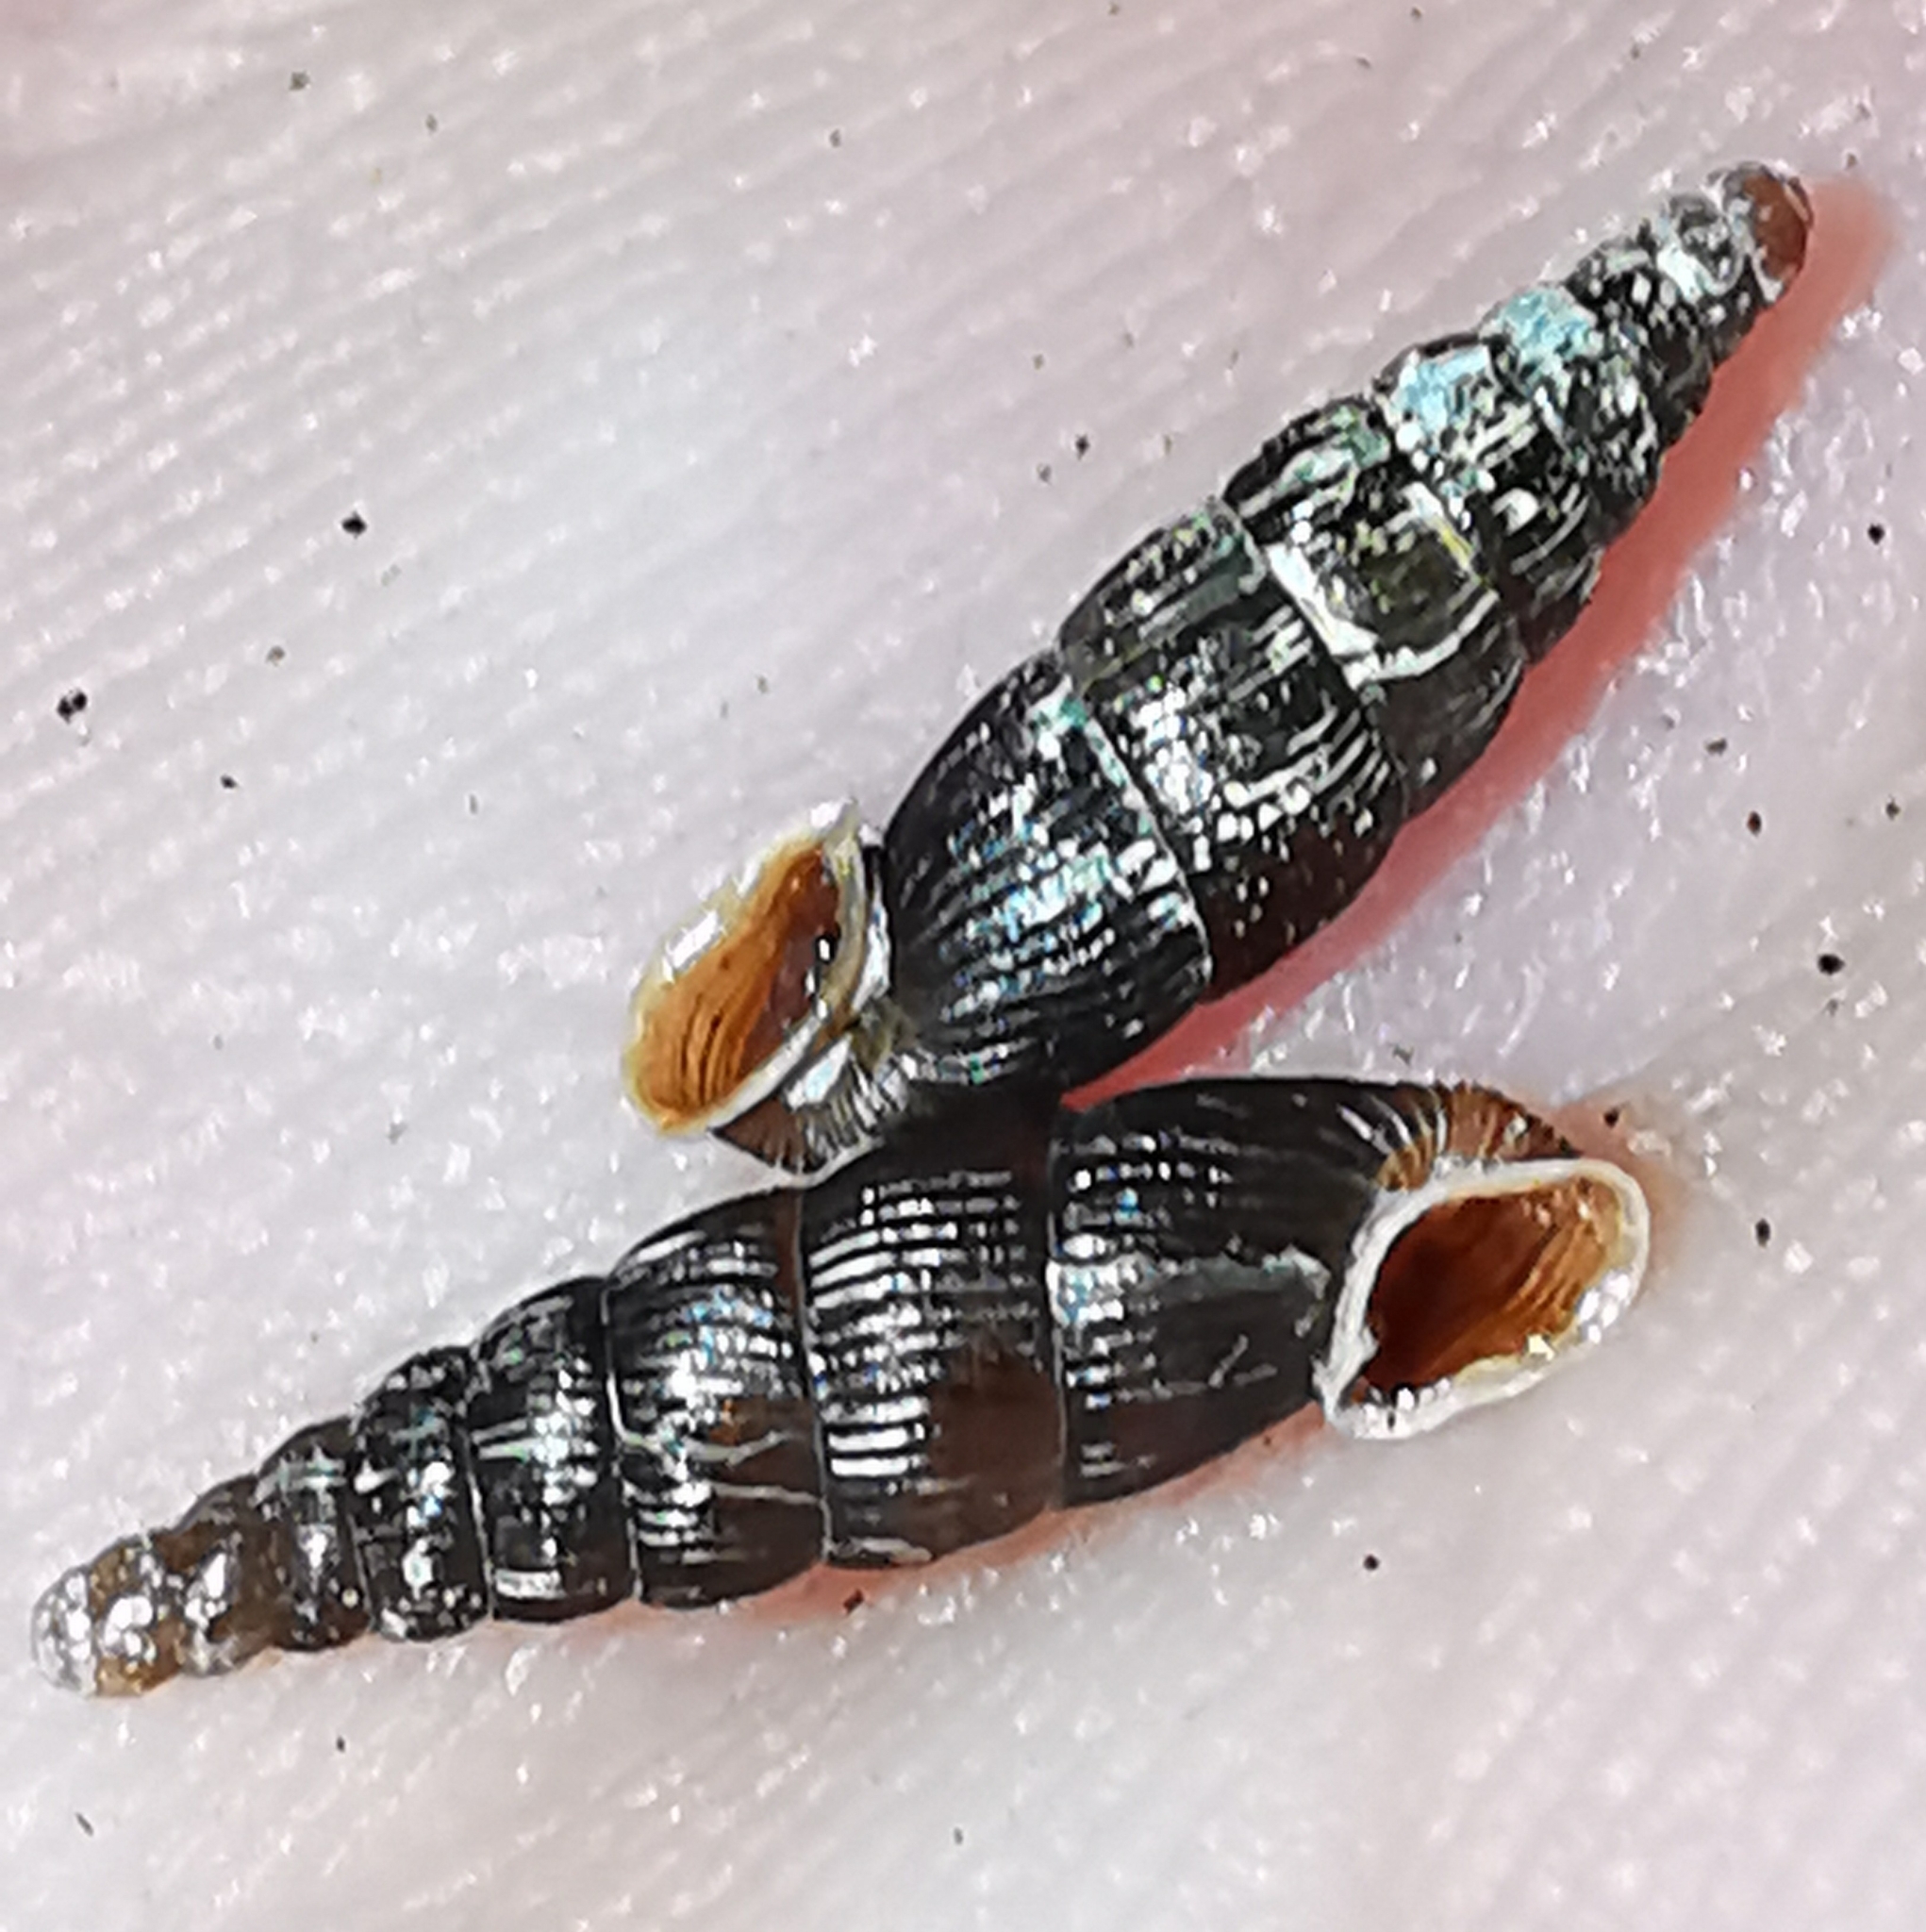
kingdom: Animalia
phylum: Mollusca
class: Gastropoda
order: Stylommatophora
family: Clausiliidae
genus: Clausilia
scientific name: Clausilia cruciata
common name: Sharp-ribbed door snail
